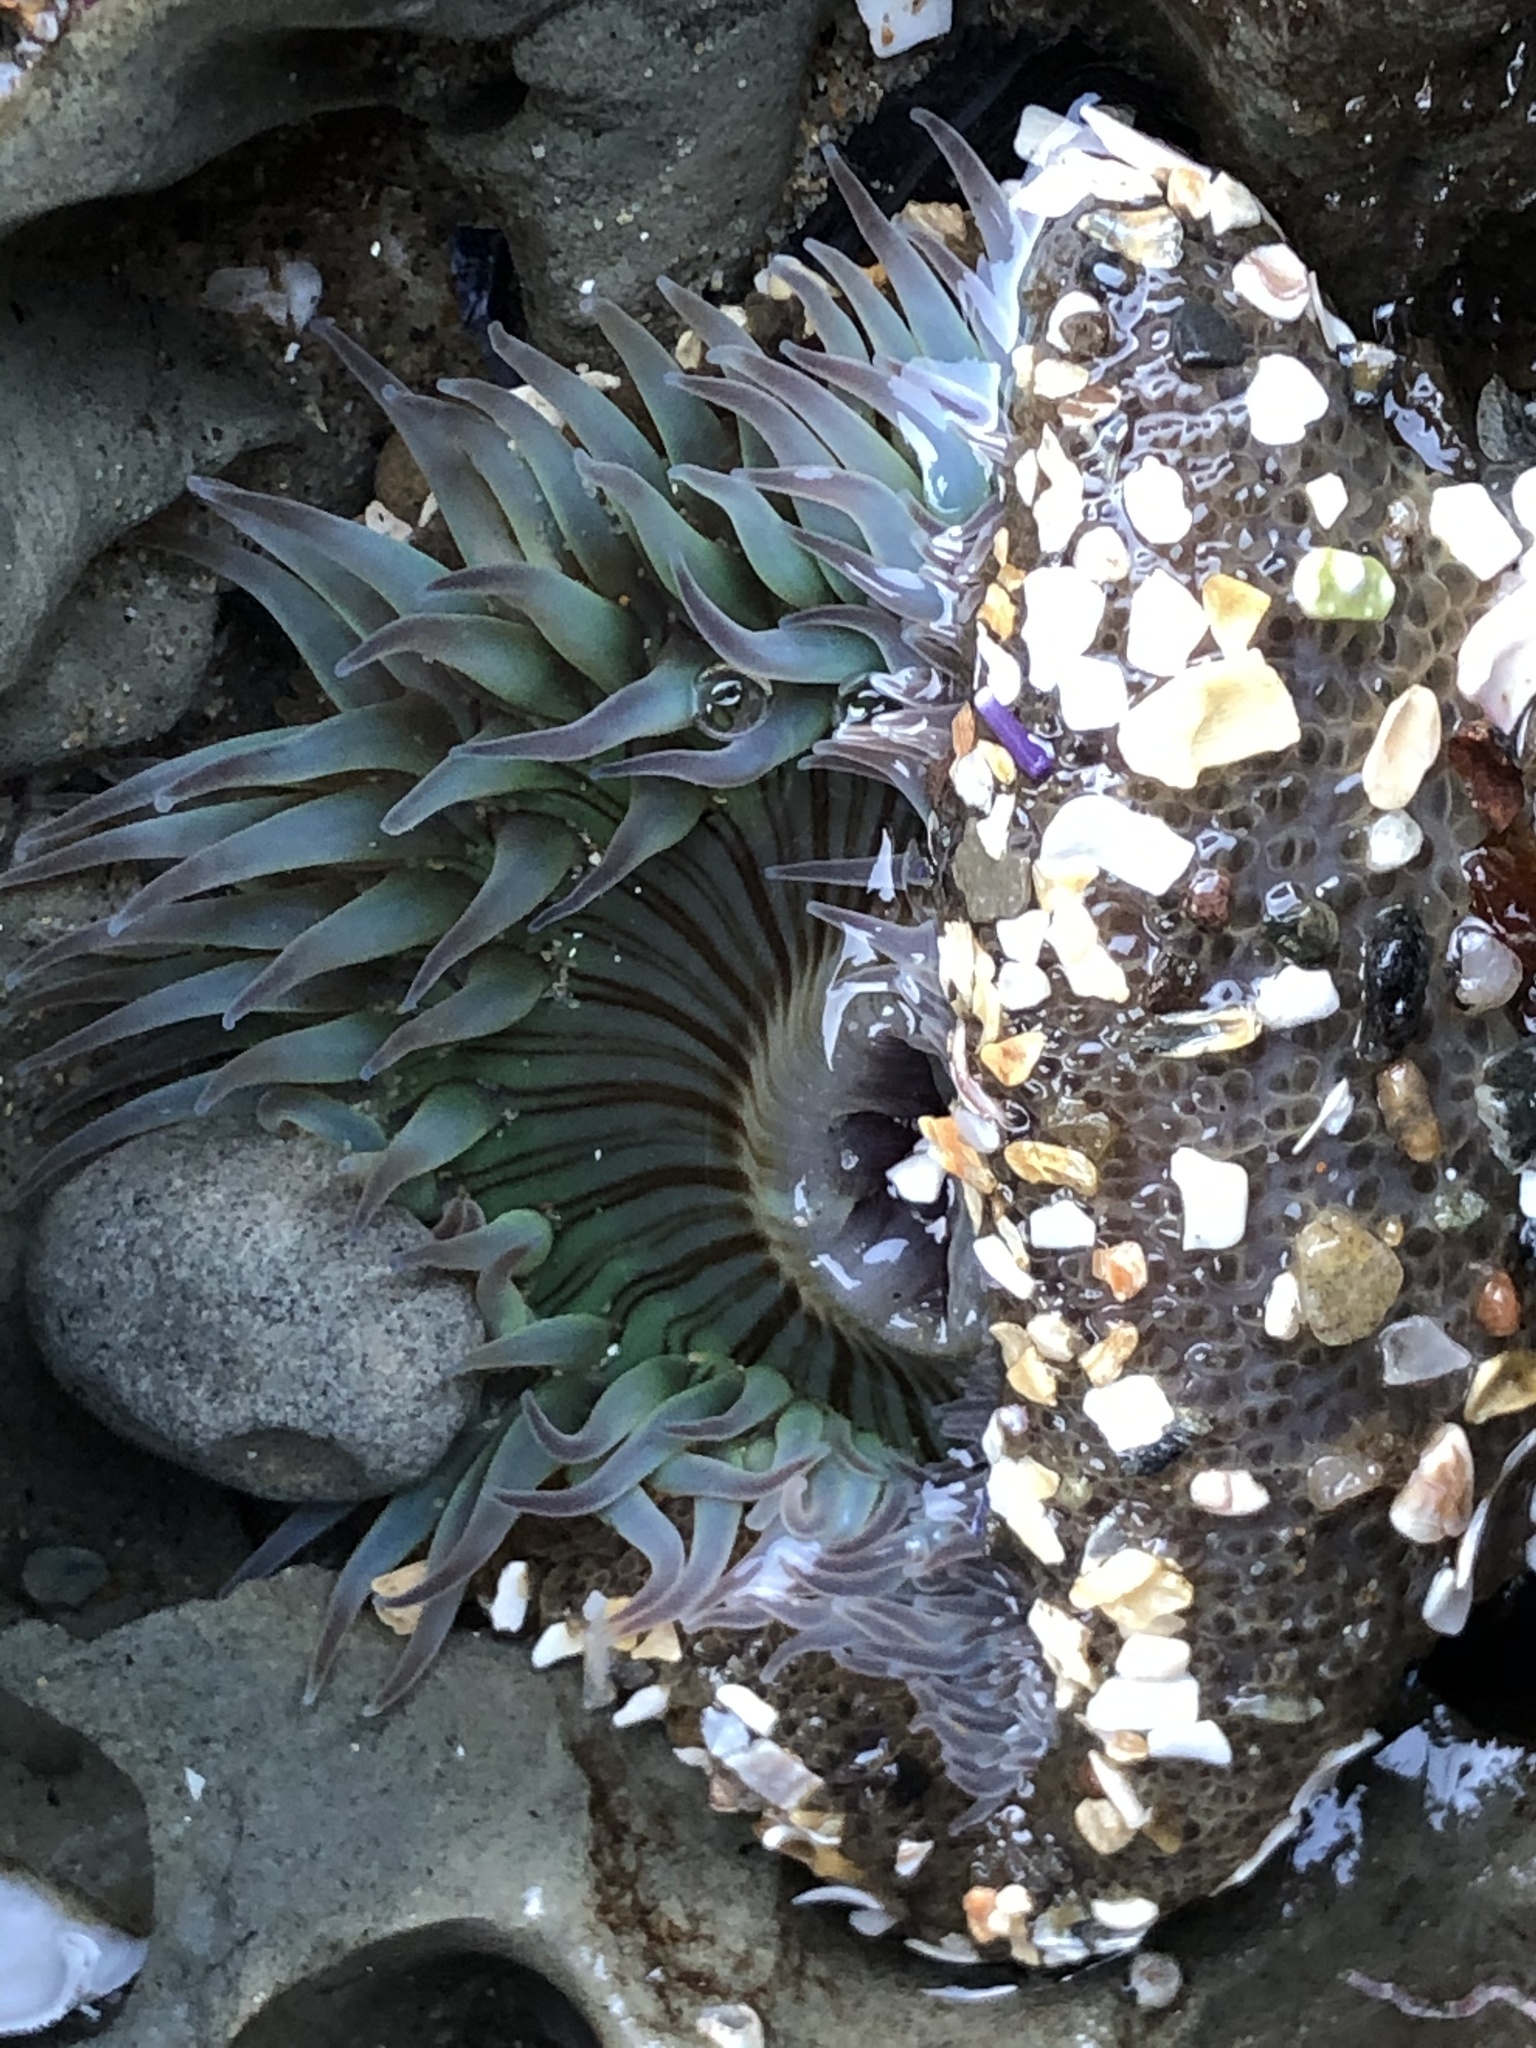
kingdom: Animalia
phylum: Cnidaria
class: Anthozoa
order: Actiniaria
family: Actiniidae
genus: Anthopleura
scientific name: Anthopleura sola
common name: Sun anemone
